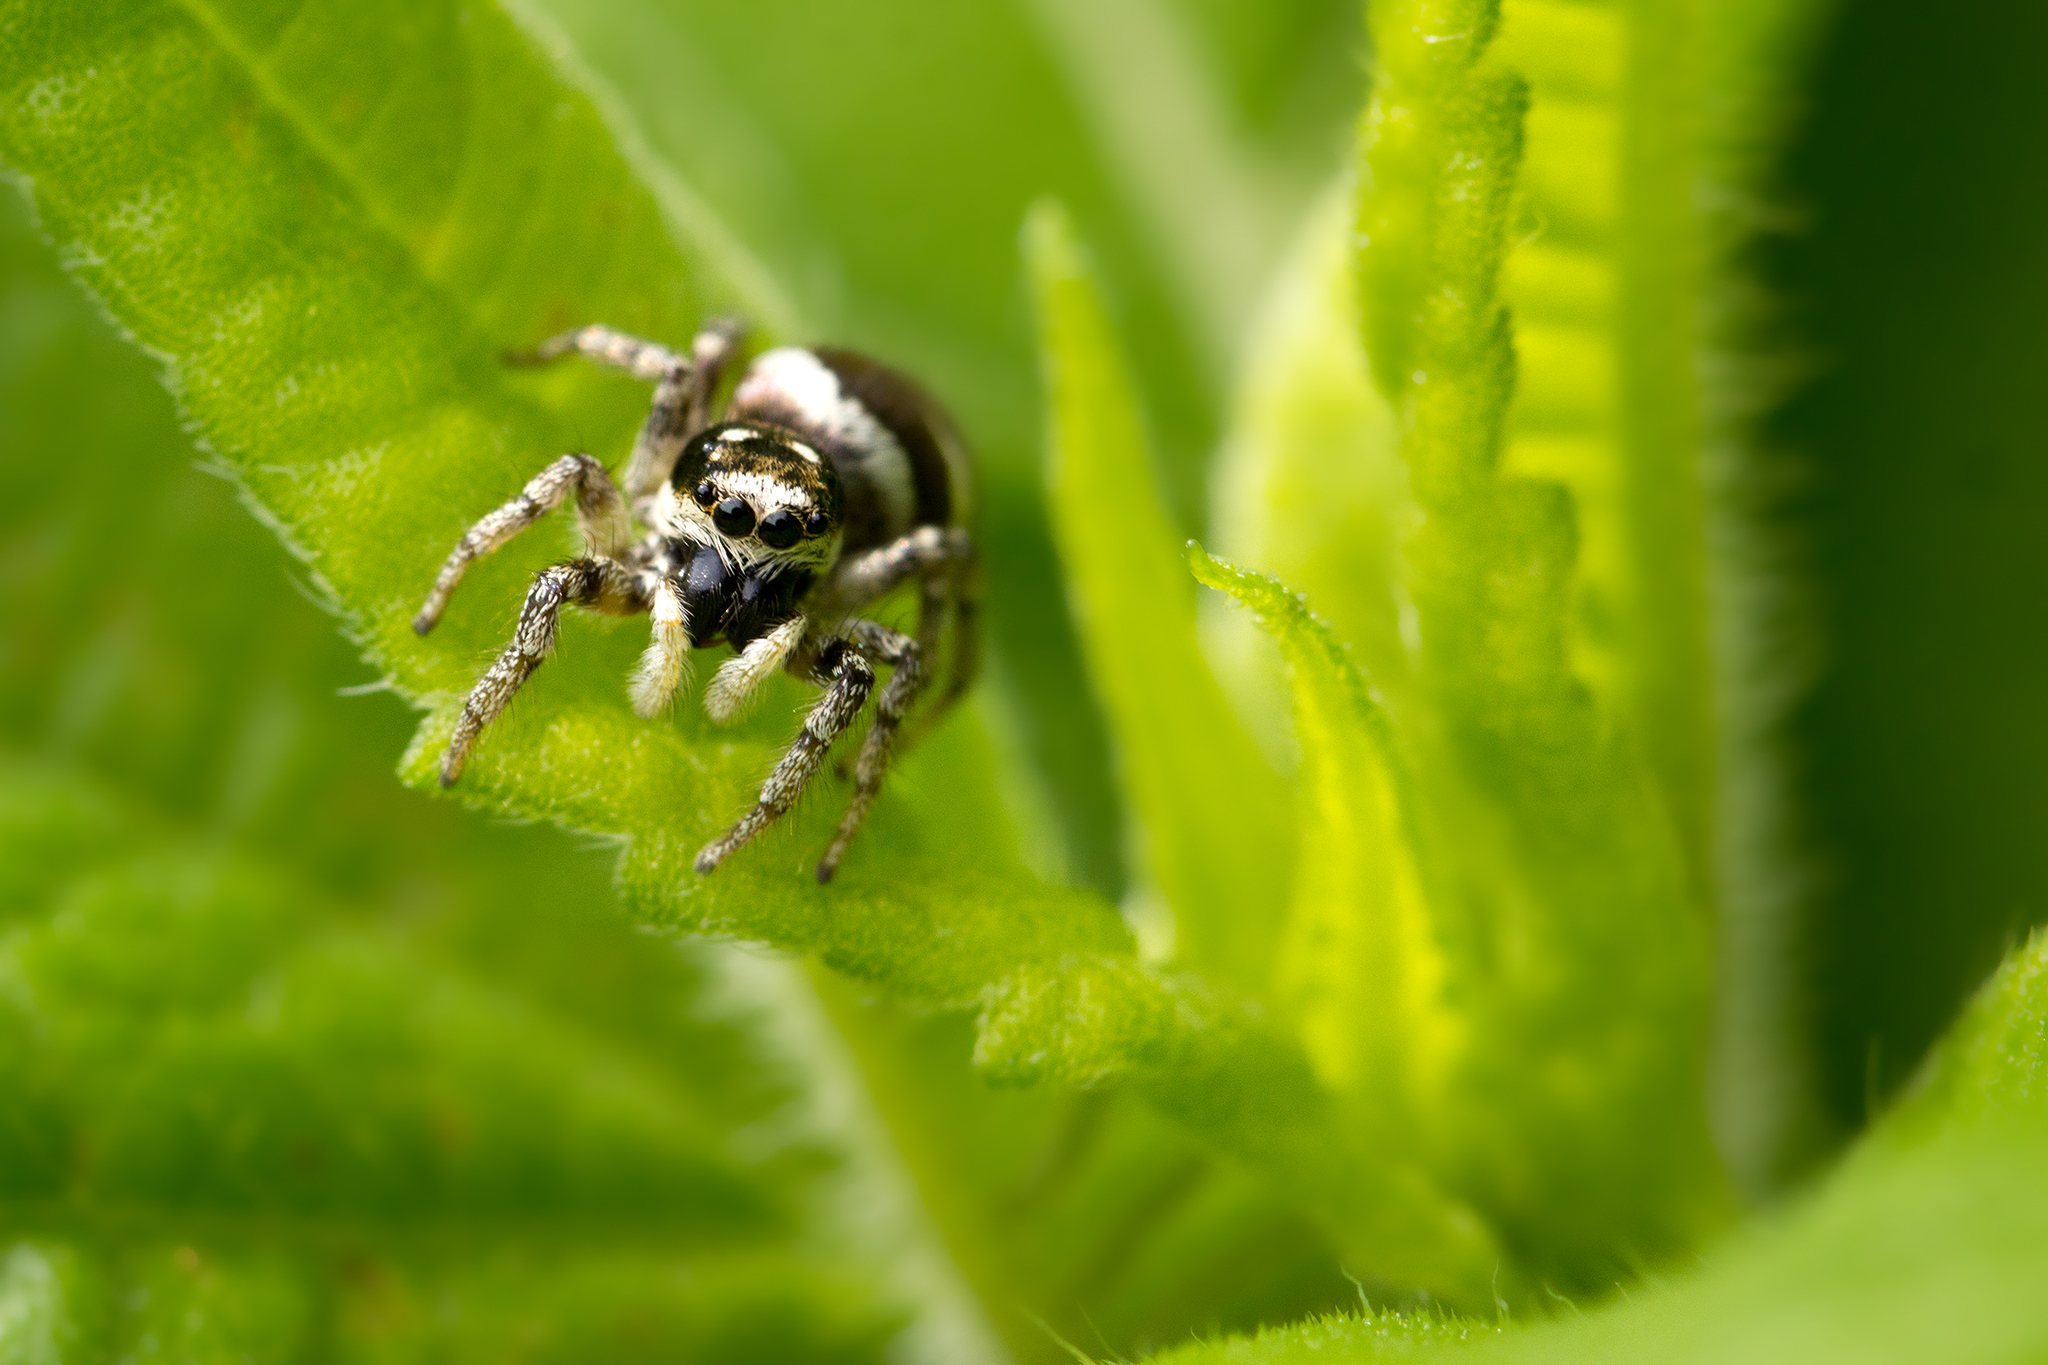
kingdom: Animalia
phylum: Arthropoda
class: Arachnida
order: Araneae
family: Salticidae
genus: Salticus
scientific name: Salticus scenicus
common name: Zebra jumper
